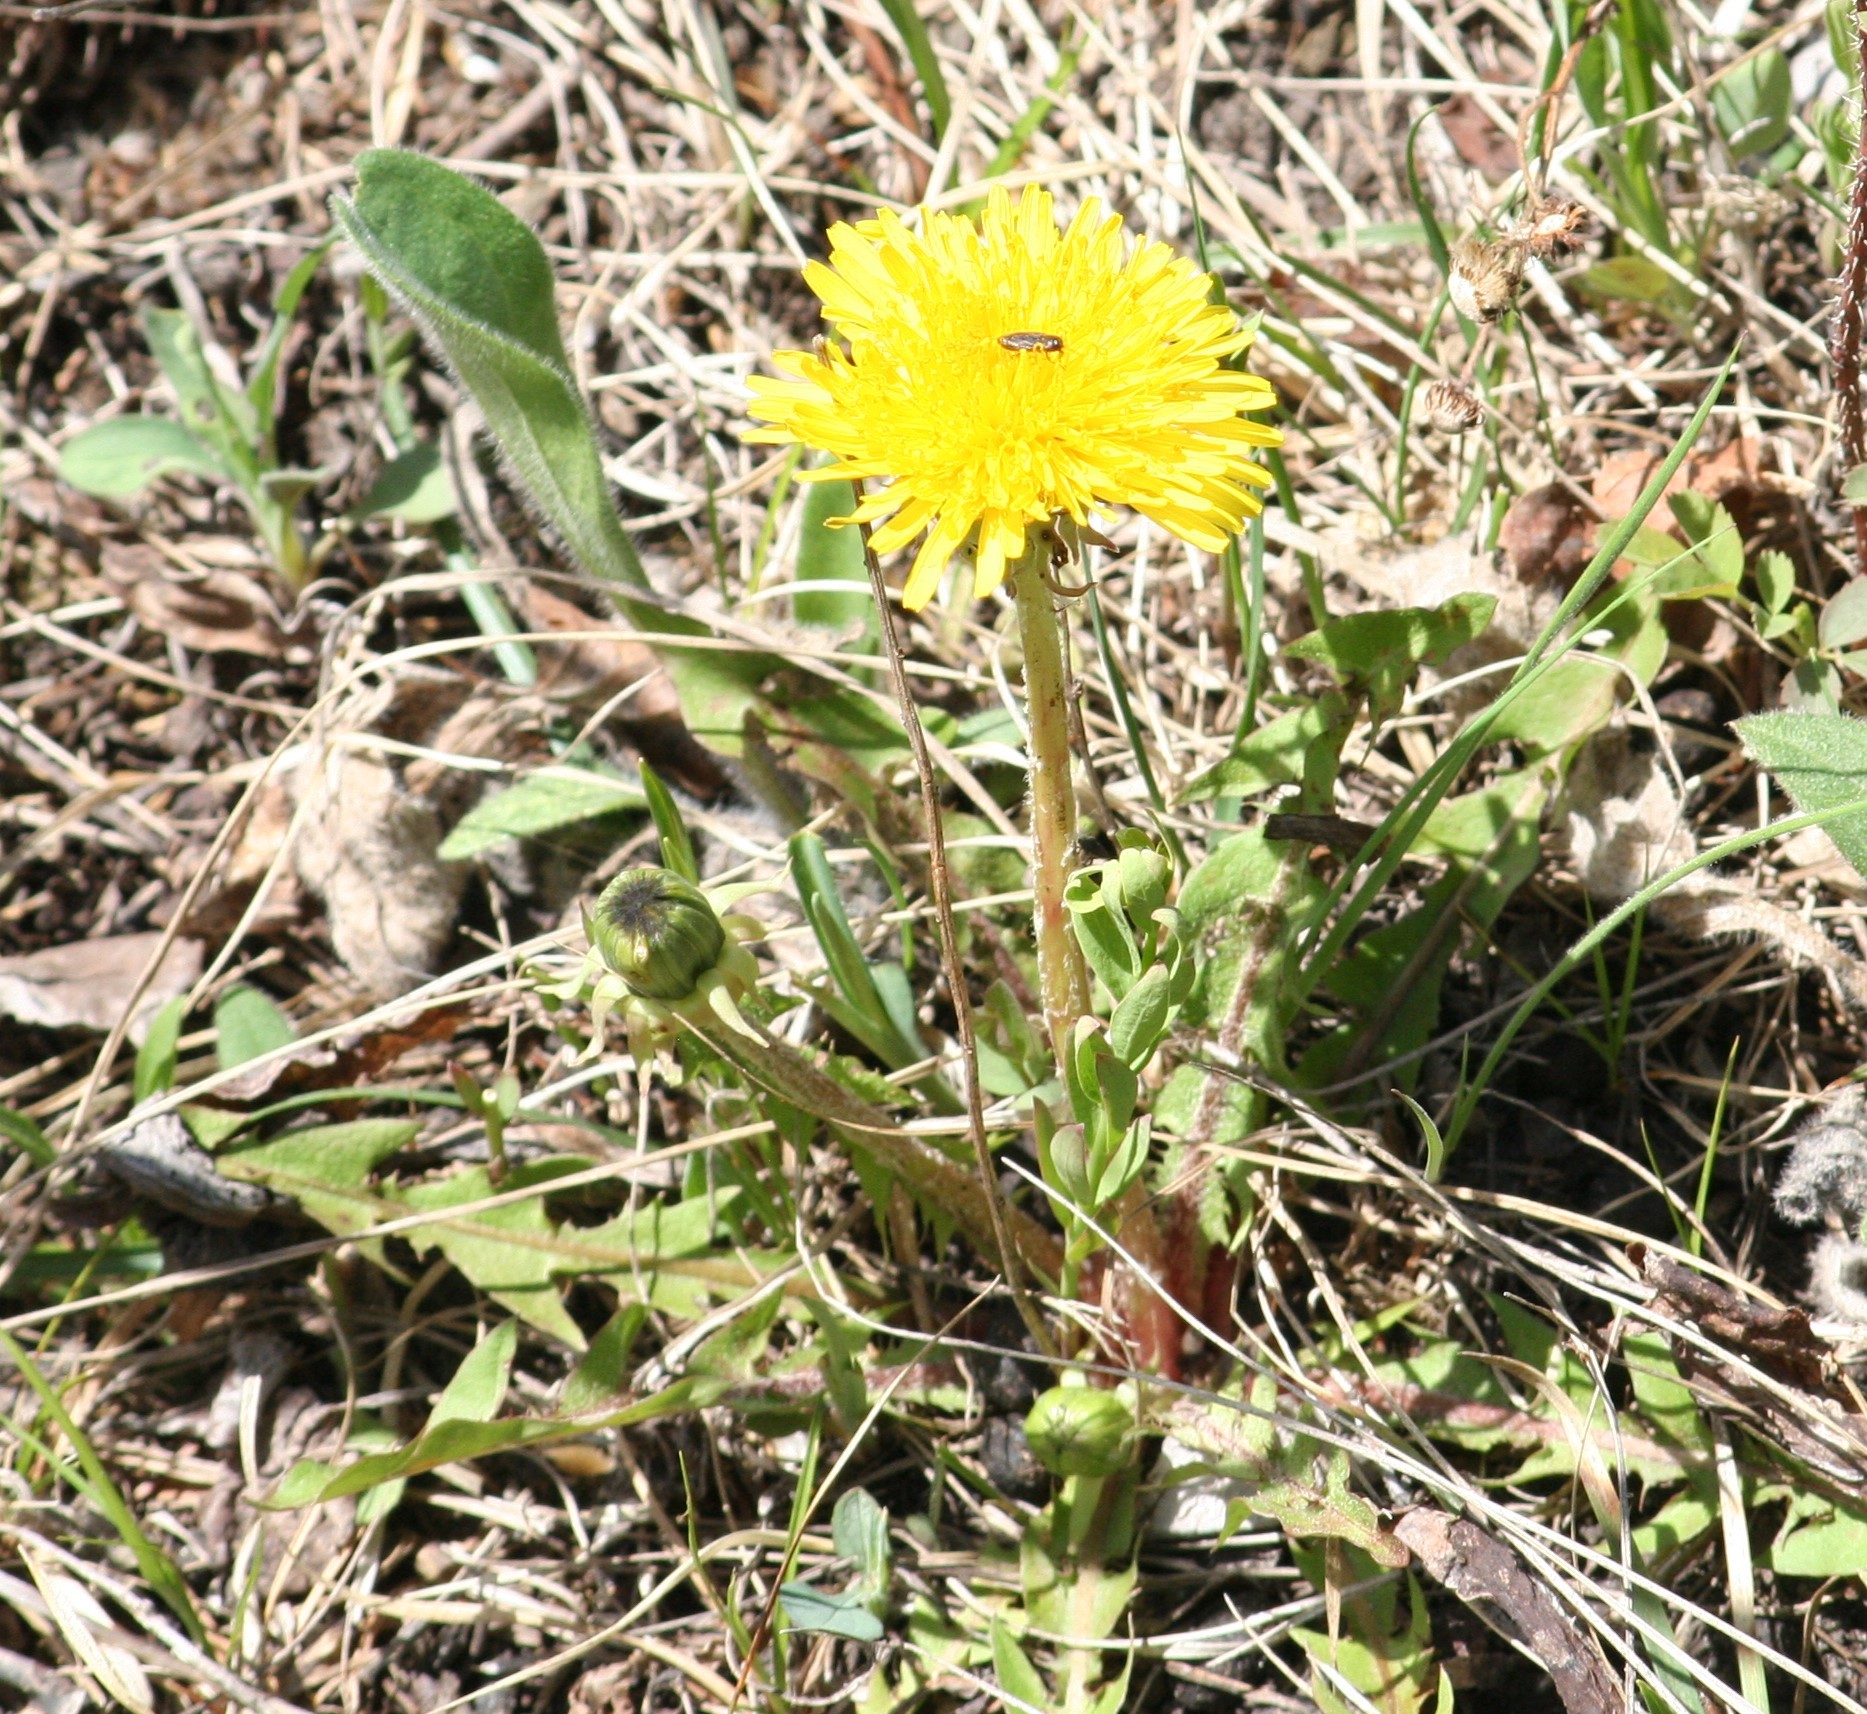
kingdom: Plantae
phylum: Tracheophyta
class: Magnoliopsida
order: Asterales
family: Asteraceae
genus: Taraxacum
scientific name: Taraxacum officinale
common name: Common dandelion
